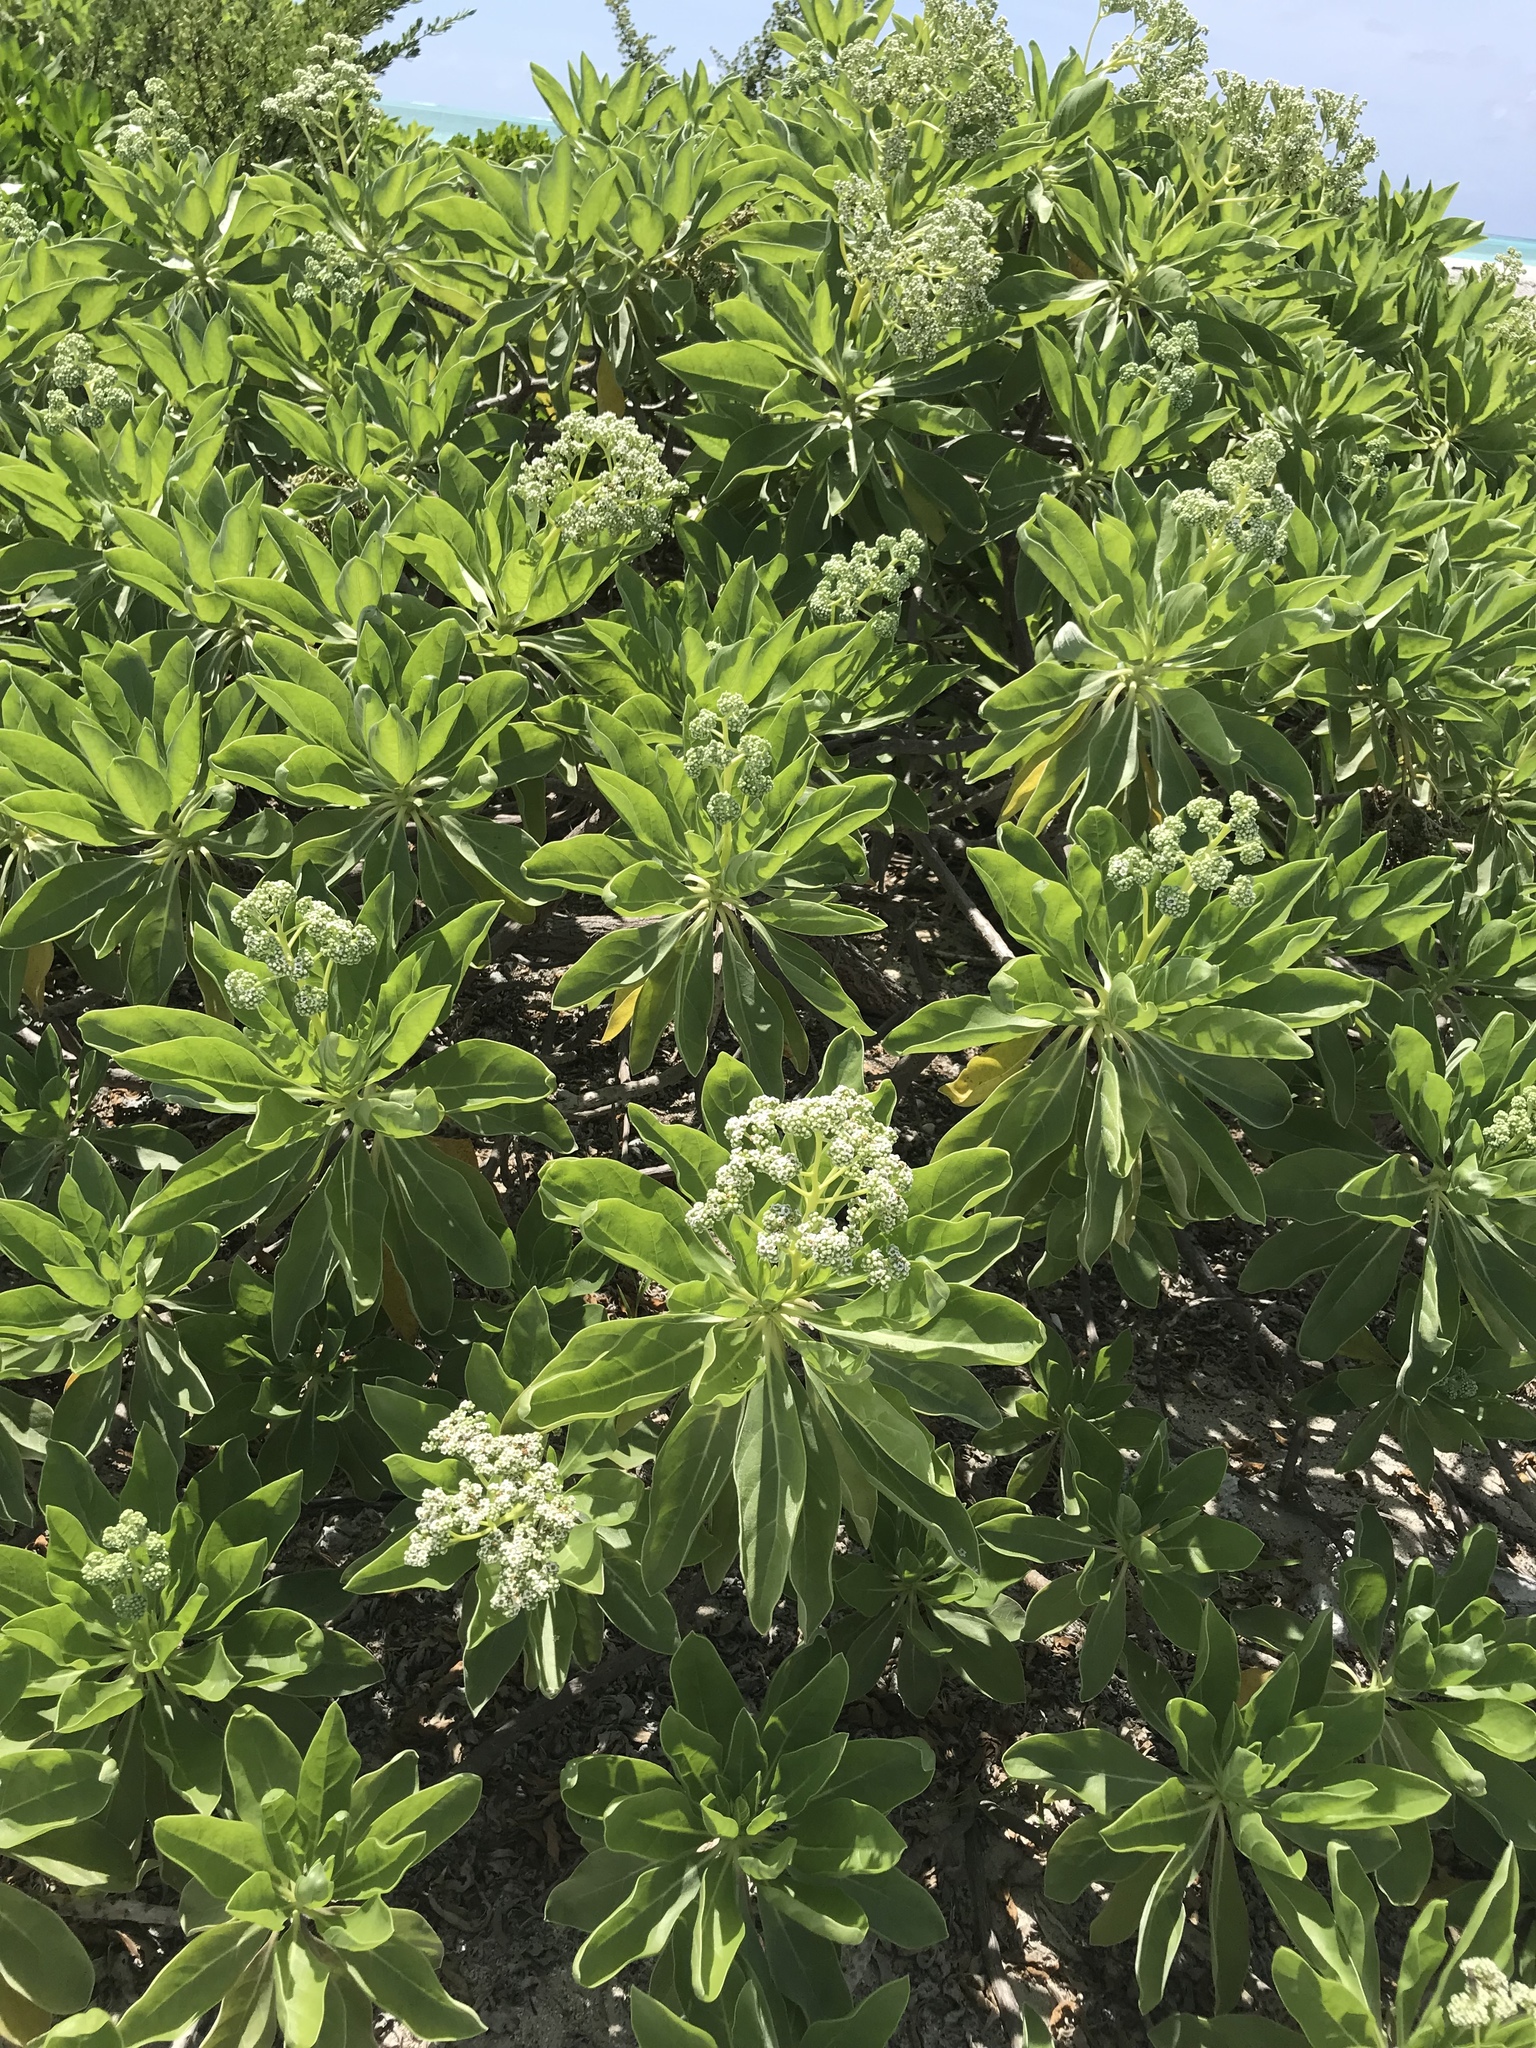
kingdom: Plantae
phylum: Tracheophyta
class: Magnoliopsida
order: Boraginales
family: Heliotropiaceae
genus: Heliotropium
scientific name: Heliotropium velutinum
